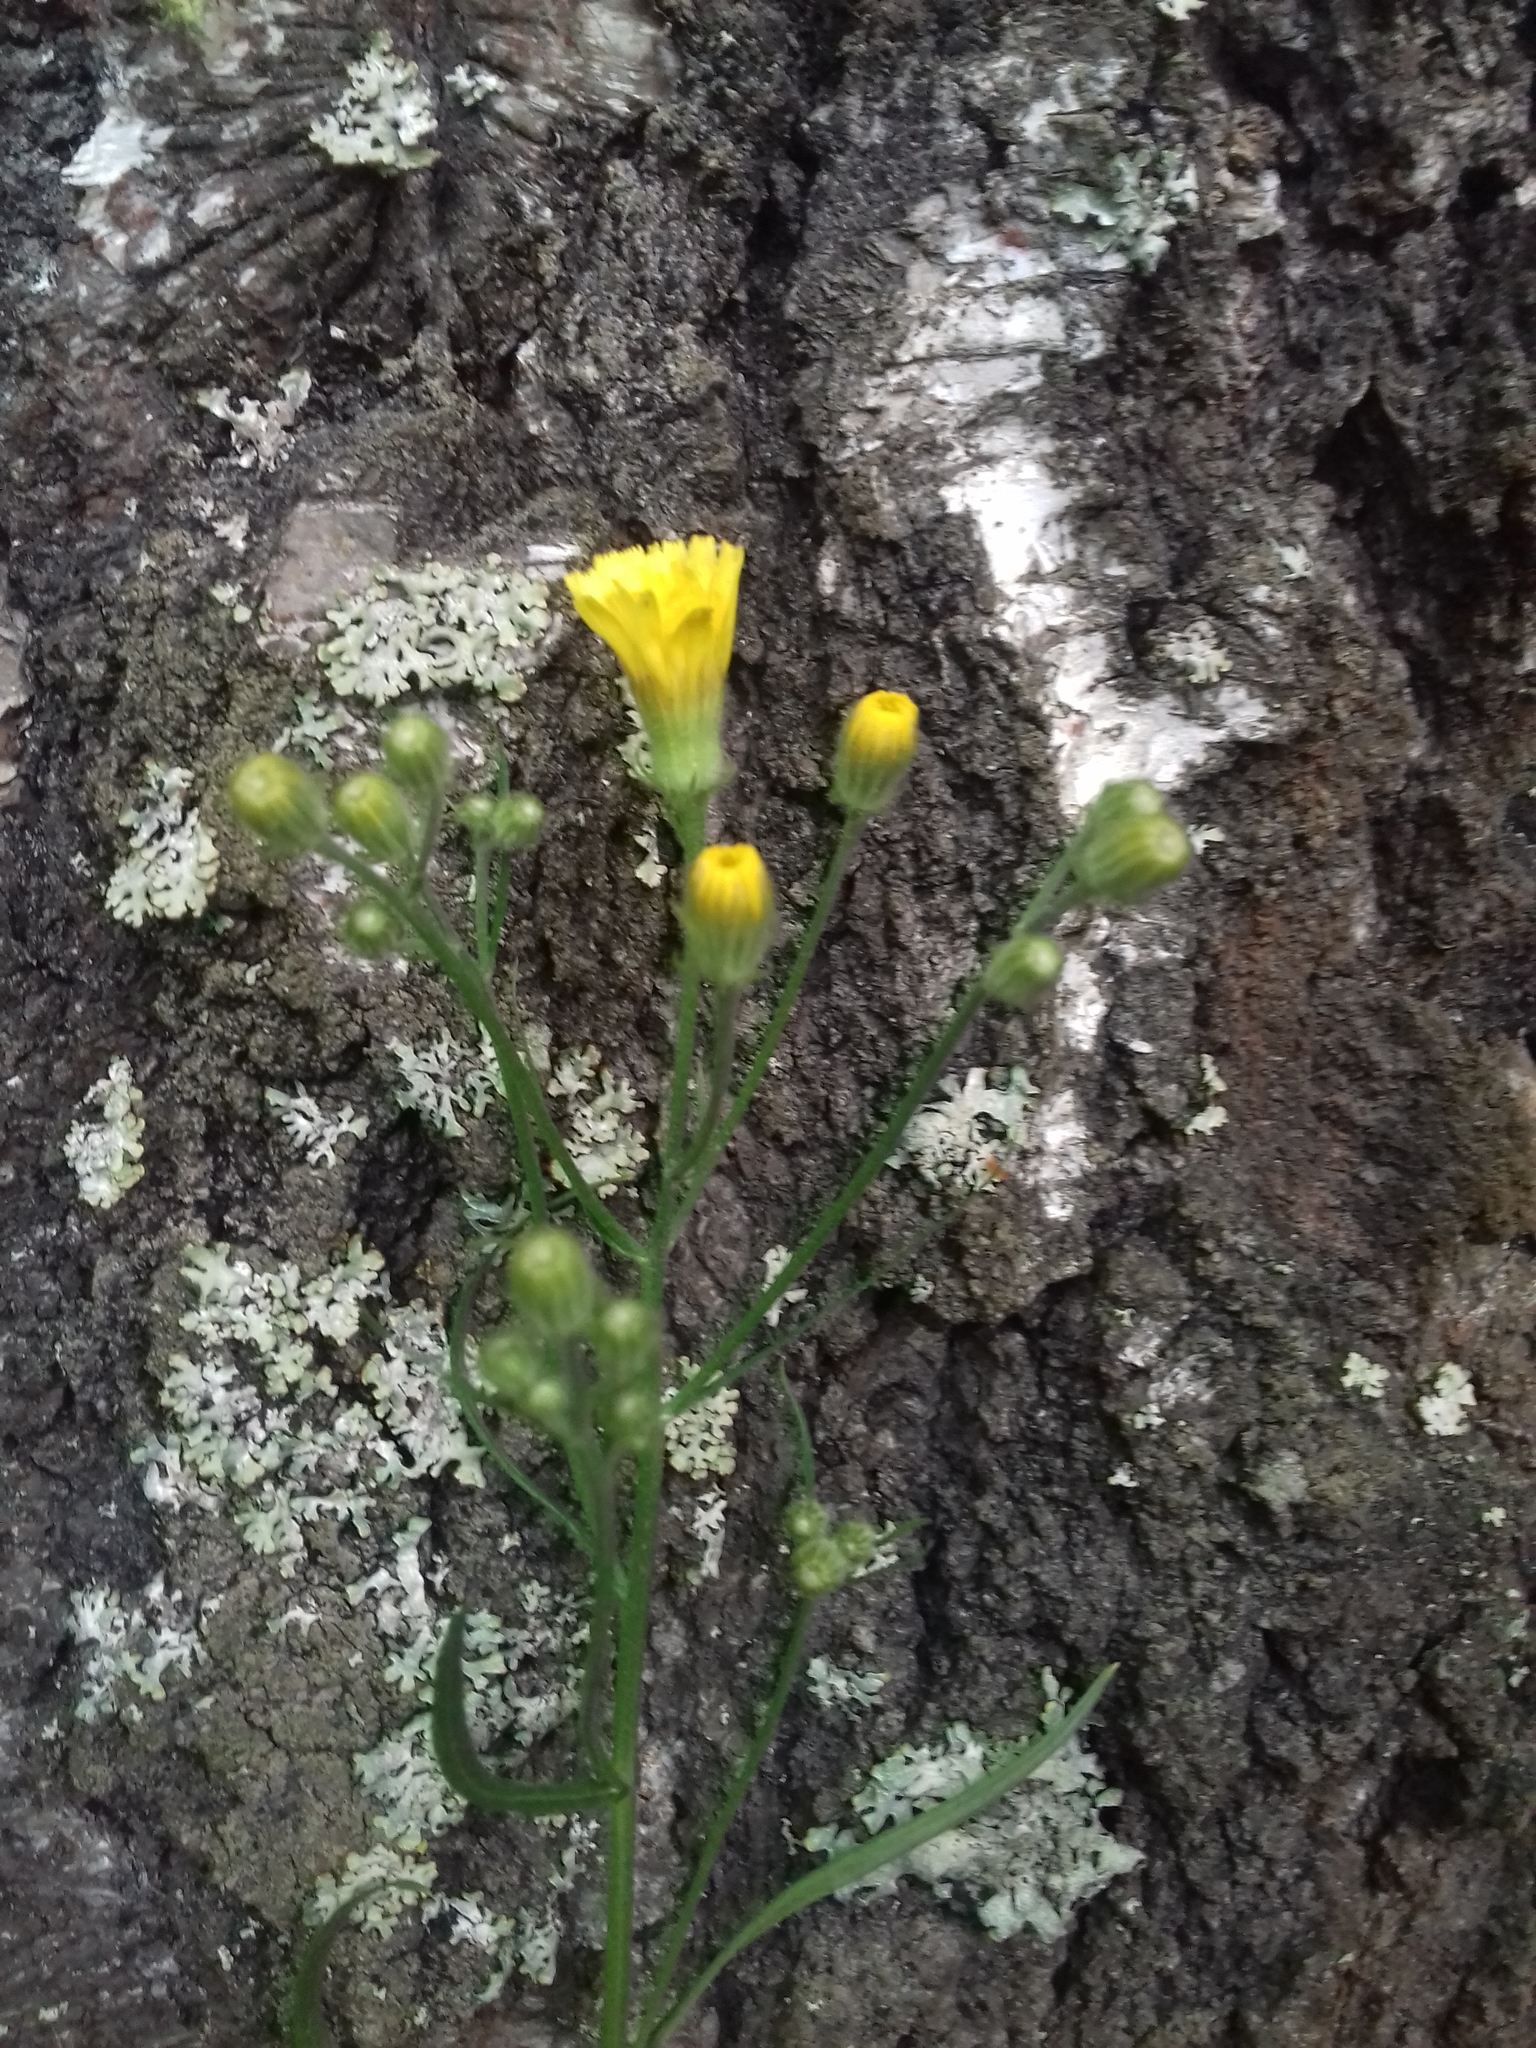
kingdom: Plantae
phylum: Tracheophyta
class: Magnoliopsida
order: Asterales
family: Asteraceae
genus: Crepis
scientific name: Crepis tectorum
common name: Narrow-leaved hawk's-beard
